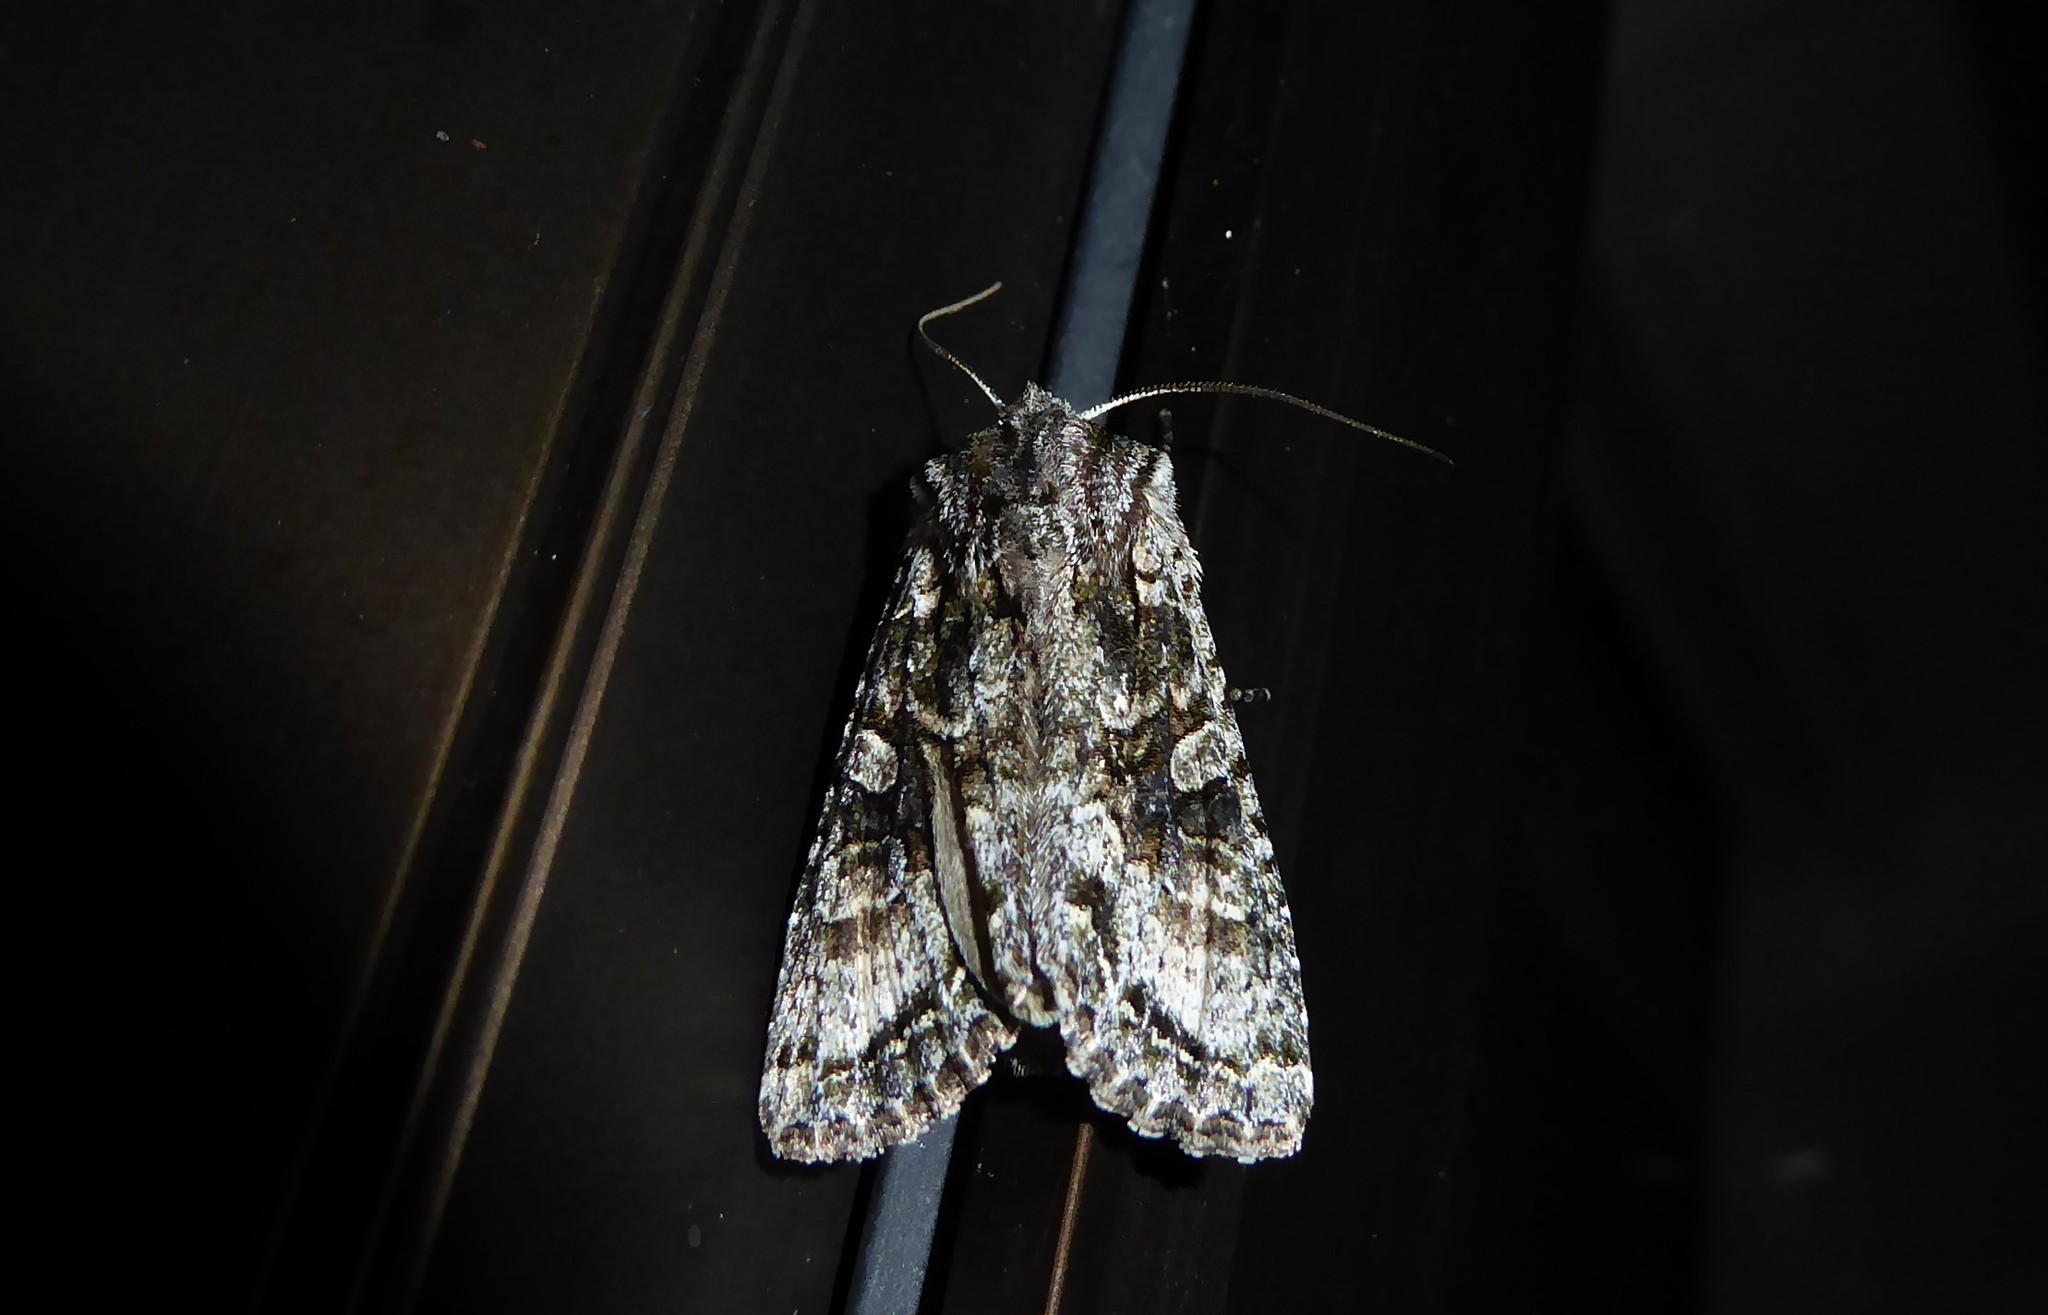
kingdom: Animalia
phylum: Arthropoda
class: Insecta
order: Lepidoptera
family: Noctuidae
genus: Ichneutica
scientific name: Ichneutica mutans
